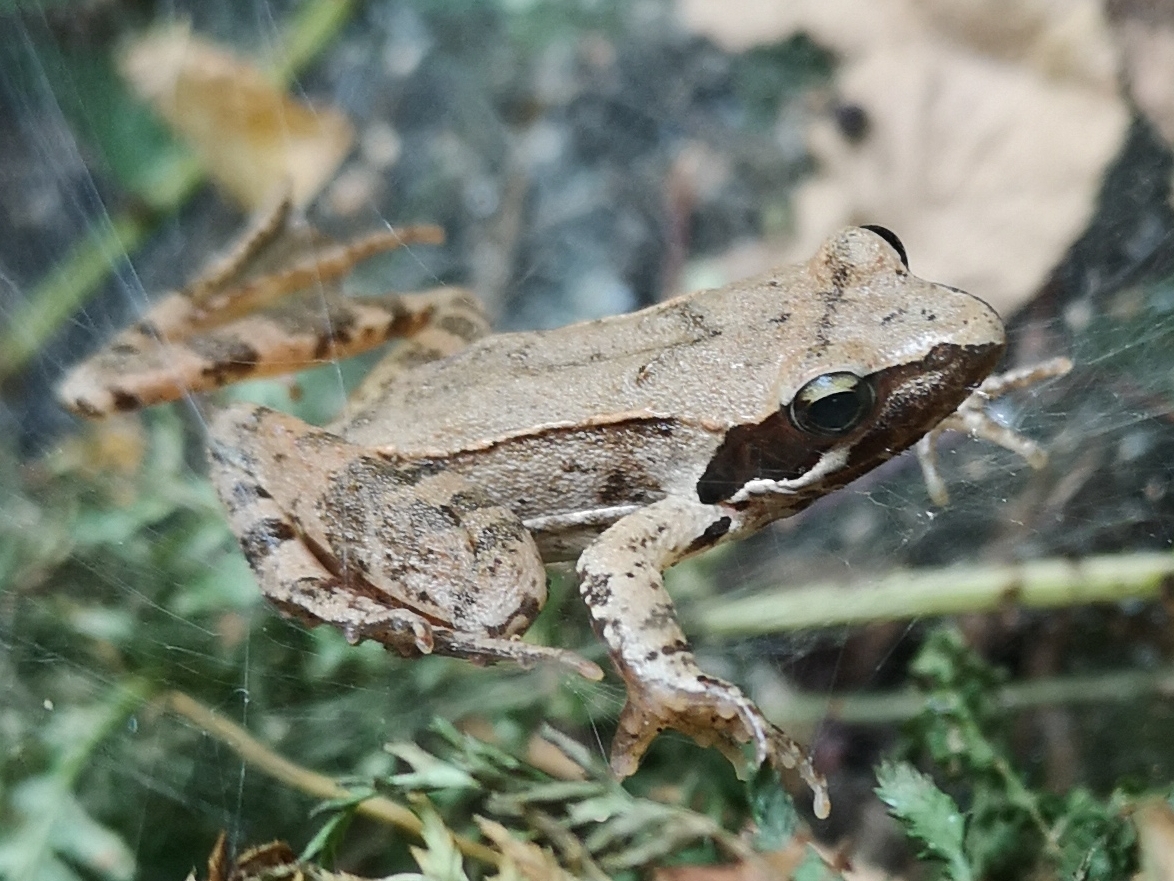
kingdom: Animalia
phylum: Chordata
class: Amphibia
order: Anura
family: Ranidae
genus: Rana
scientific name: Rana latastei
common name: Italian agile frog
